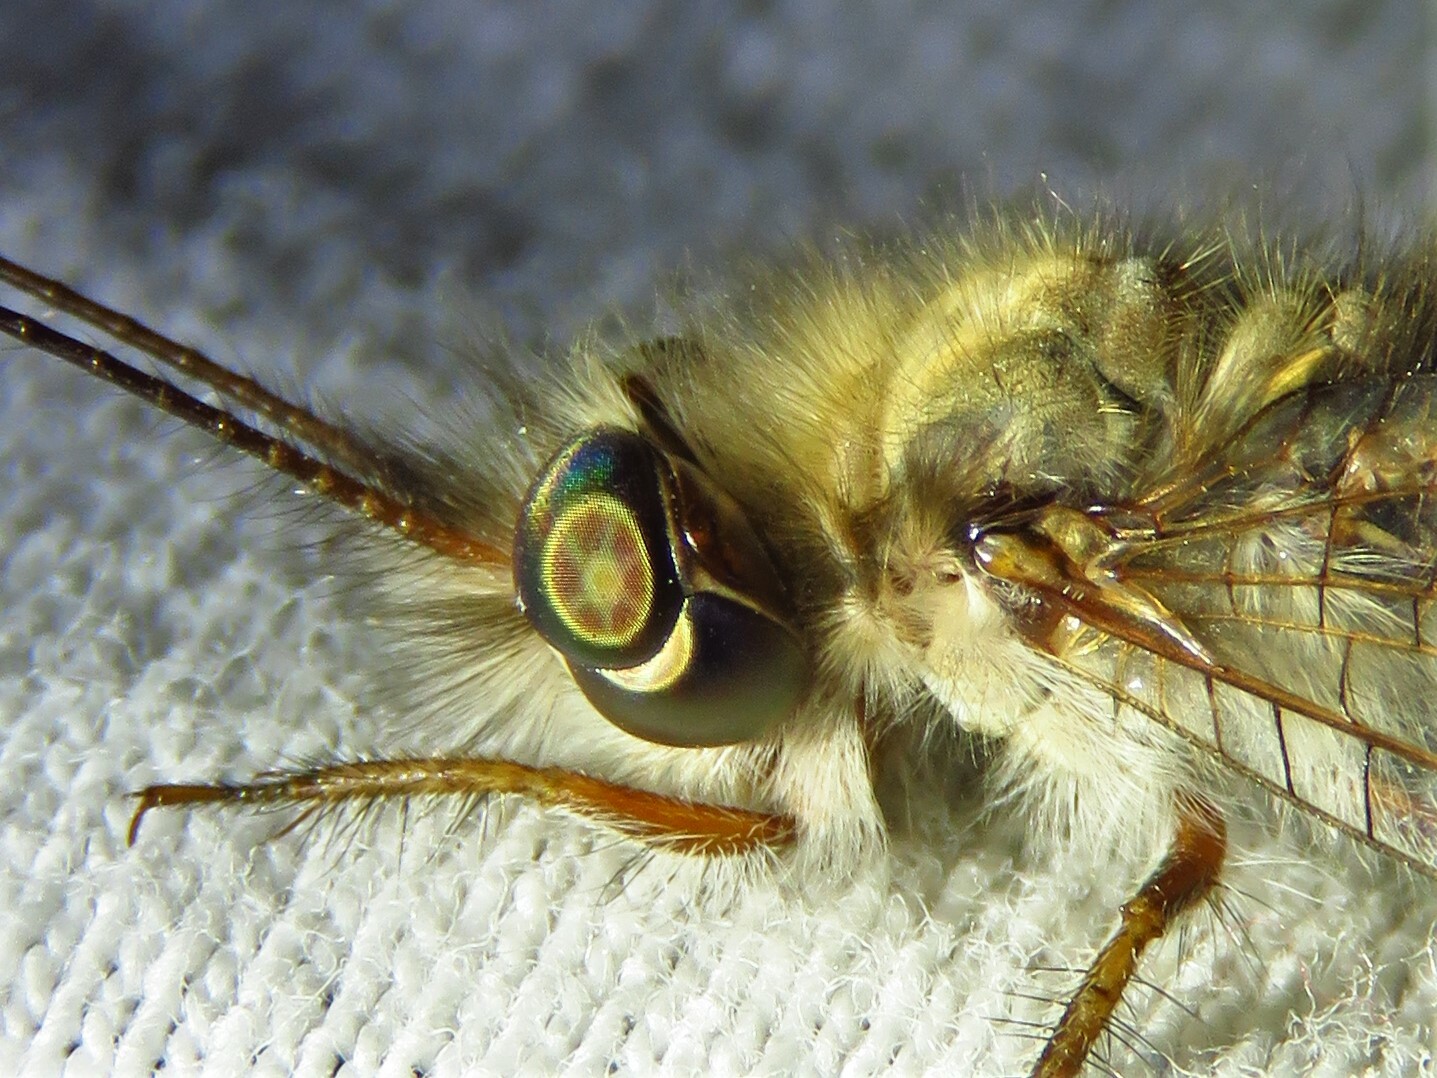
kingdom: Animalia
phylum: Arthropoda
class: Insecta
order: Neuroptera
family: Ascalaphidae
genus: Ululodes
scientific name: Ululodes macleayanus
